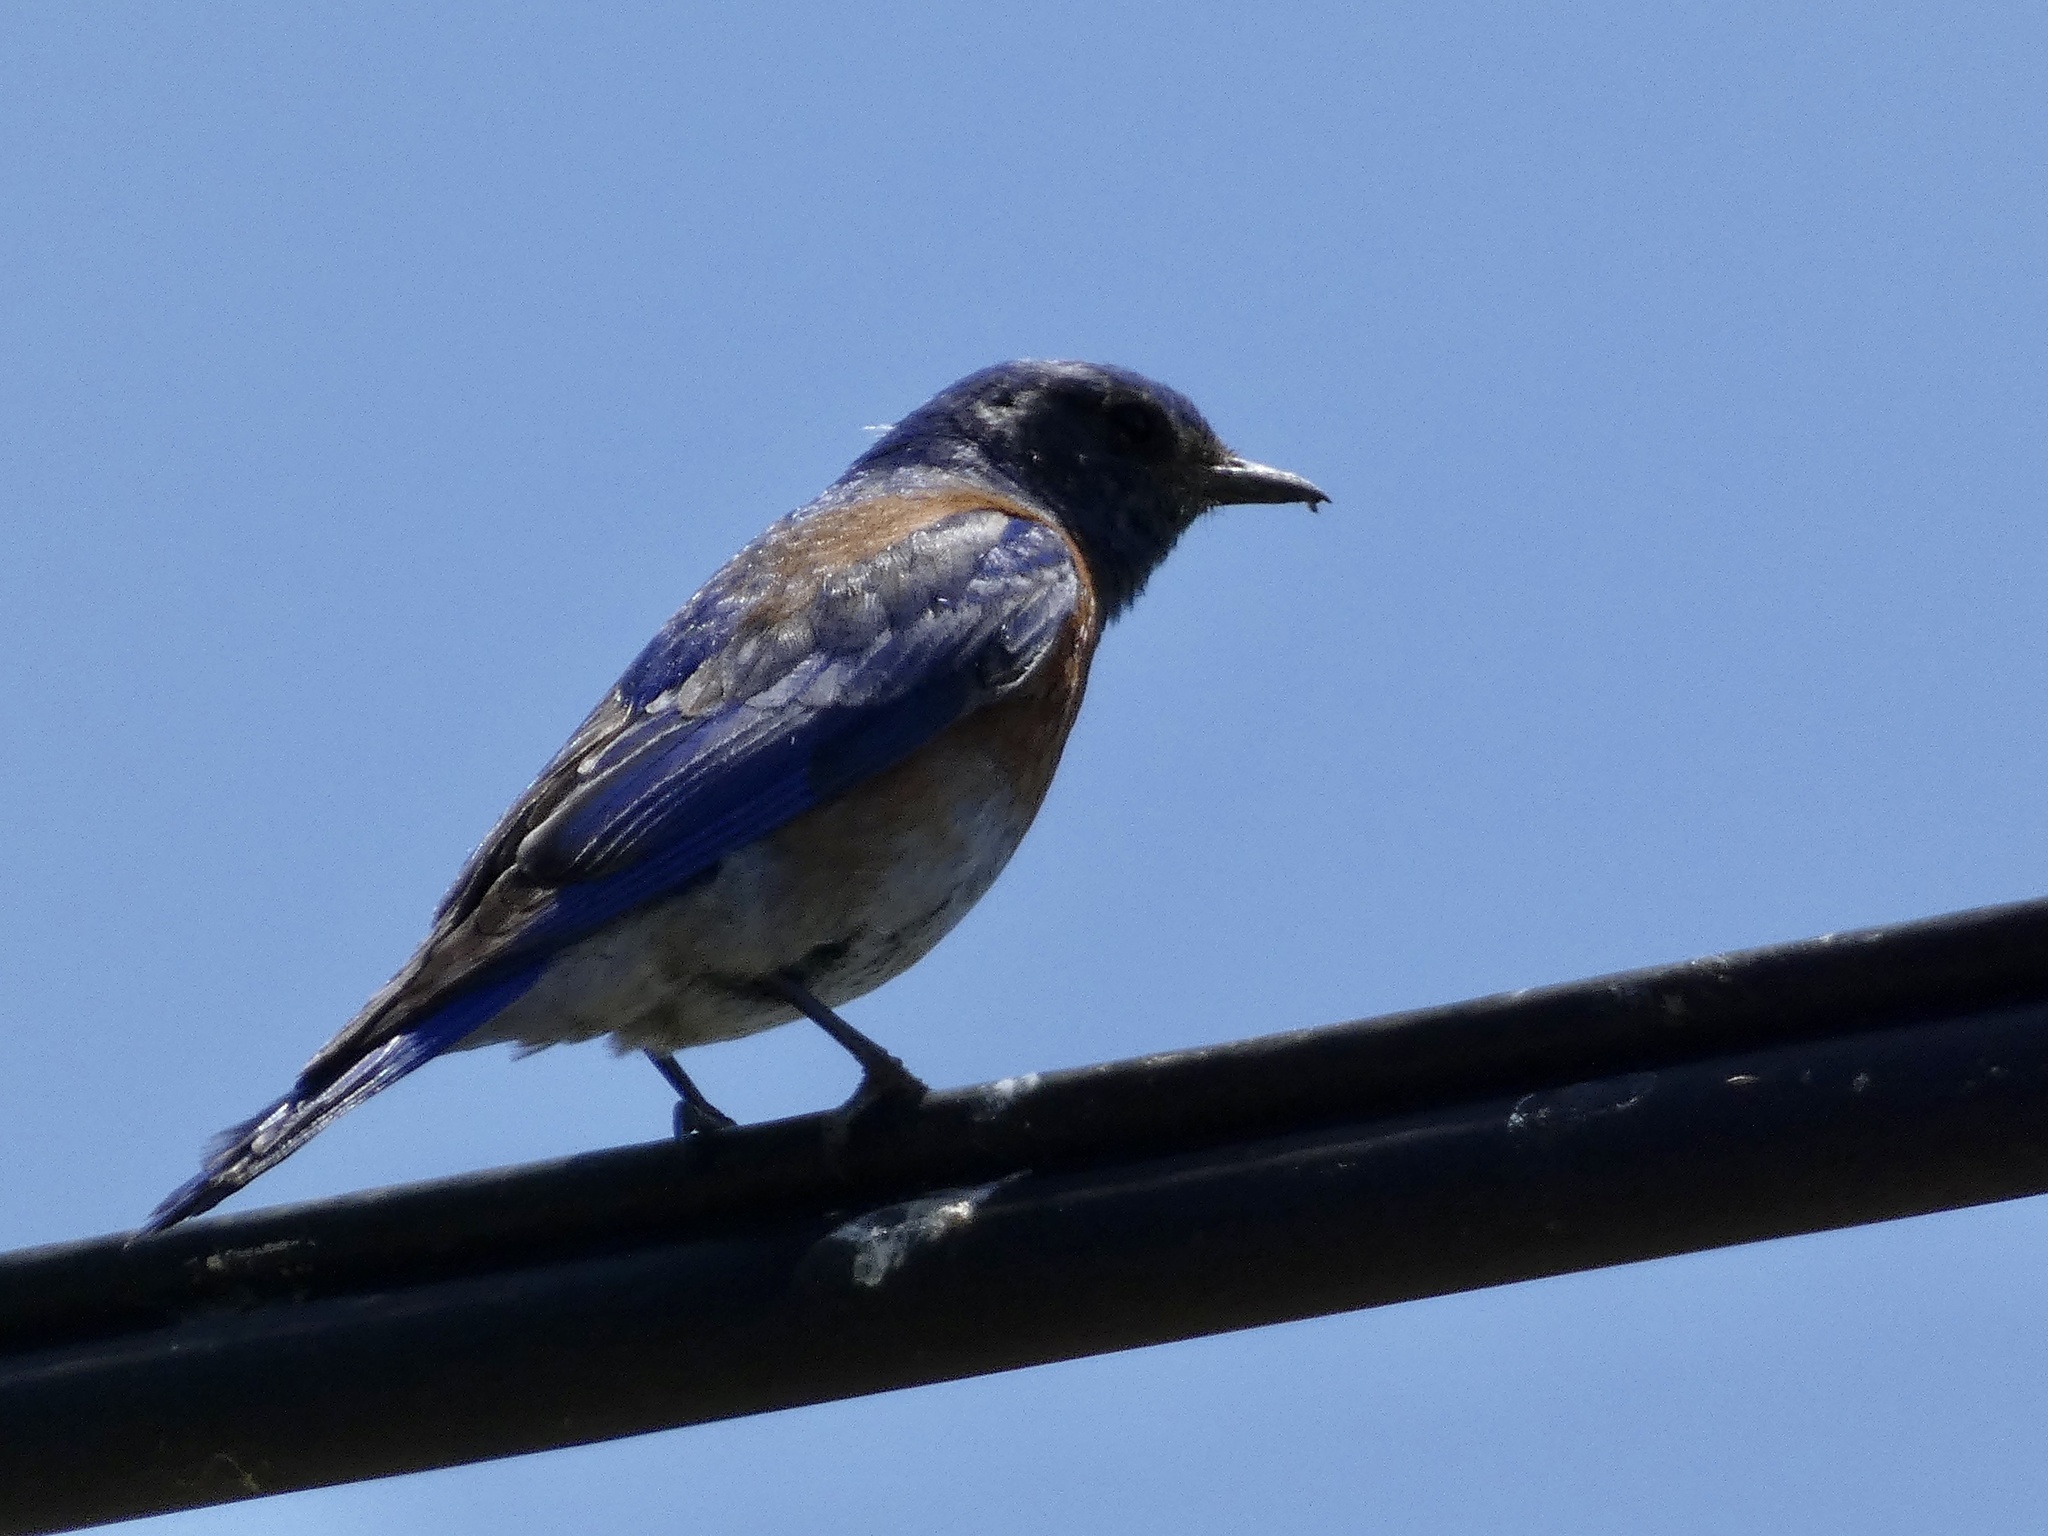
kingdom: Animalia
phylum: Chordata
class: Aves
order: Passeriformes
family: Turdidae
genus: Sialia
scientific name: Sialia mexicana
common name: Western bluebird
